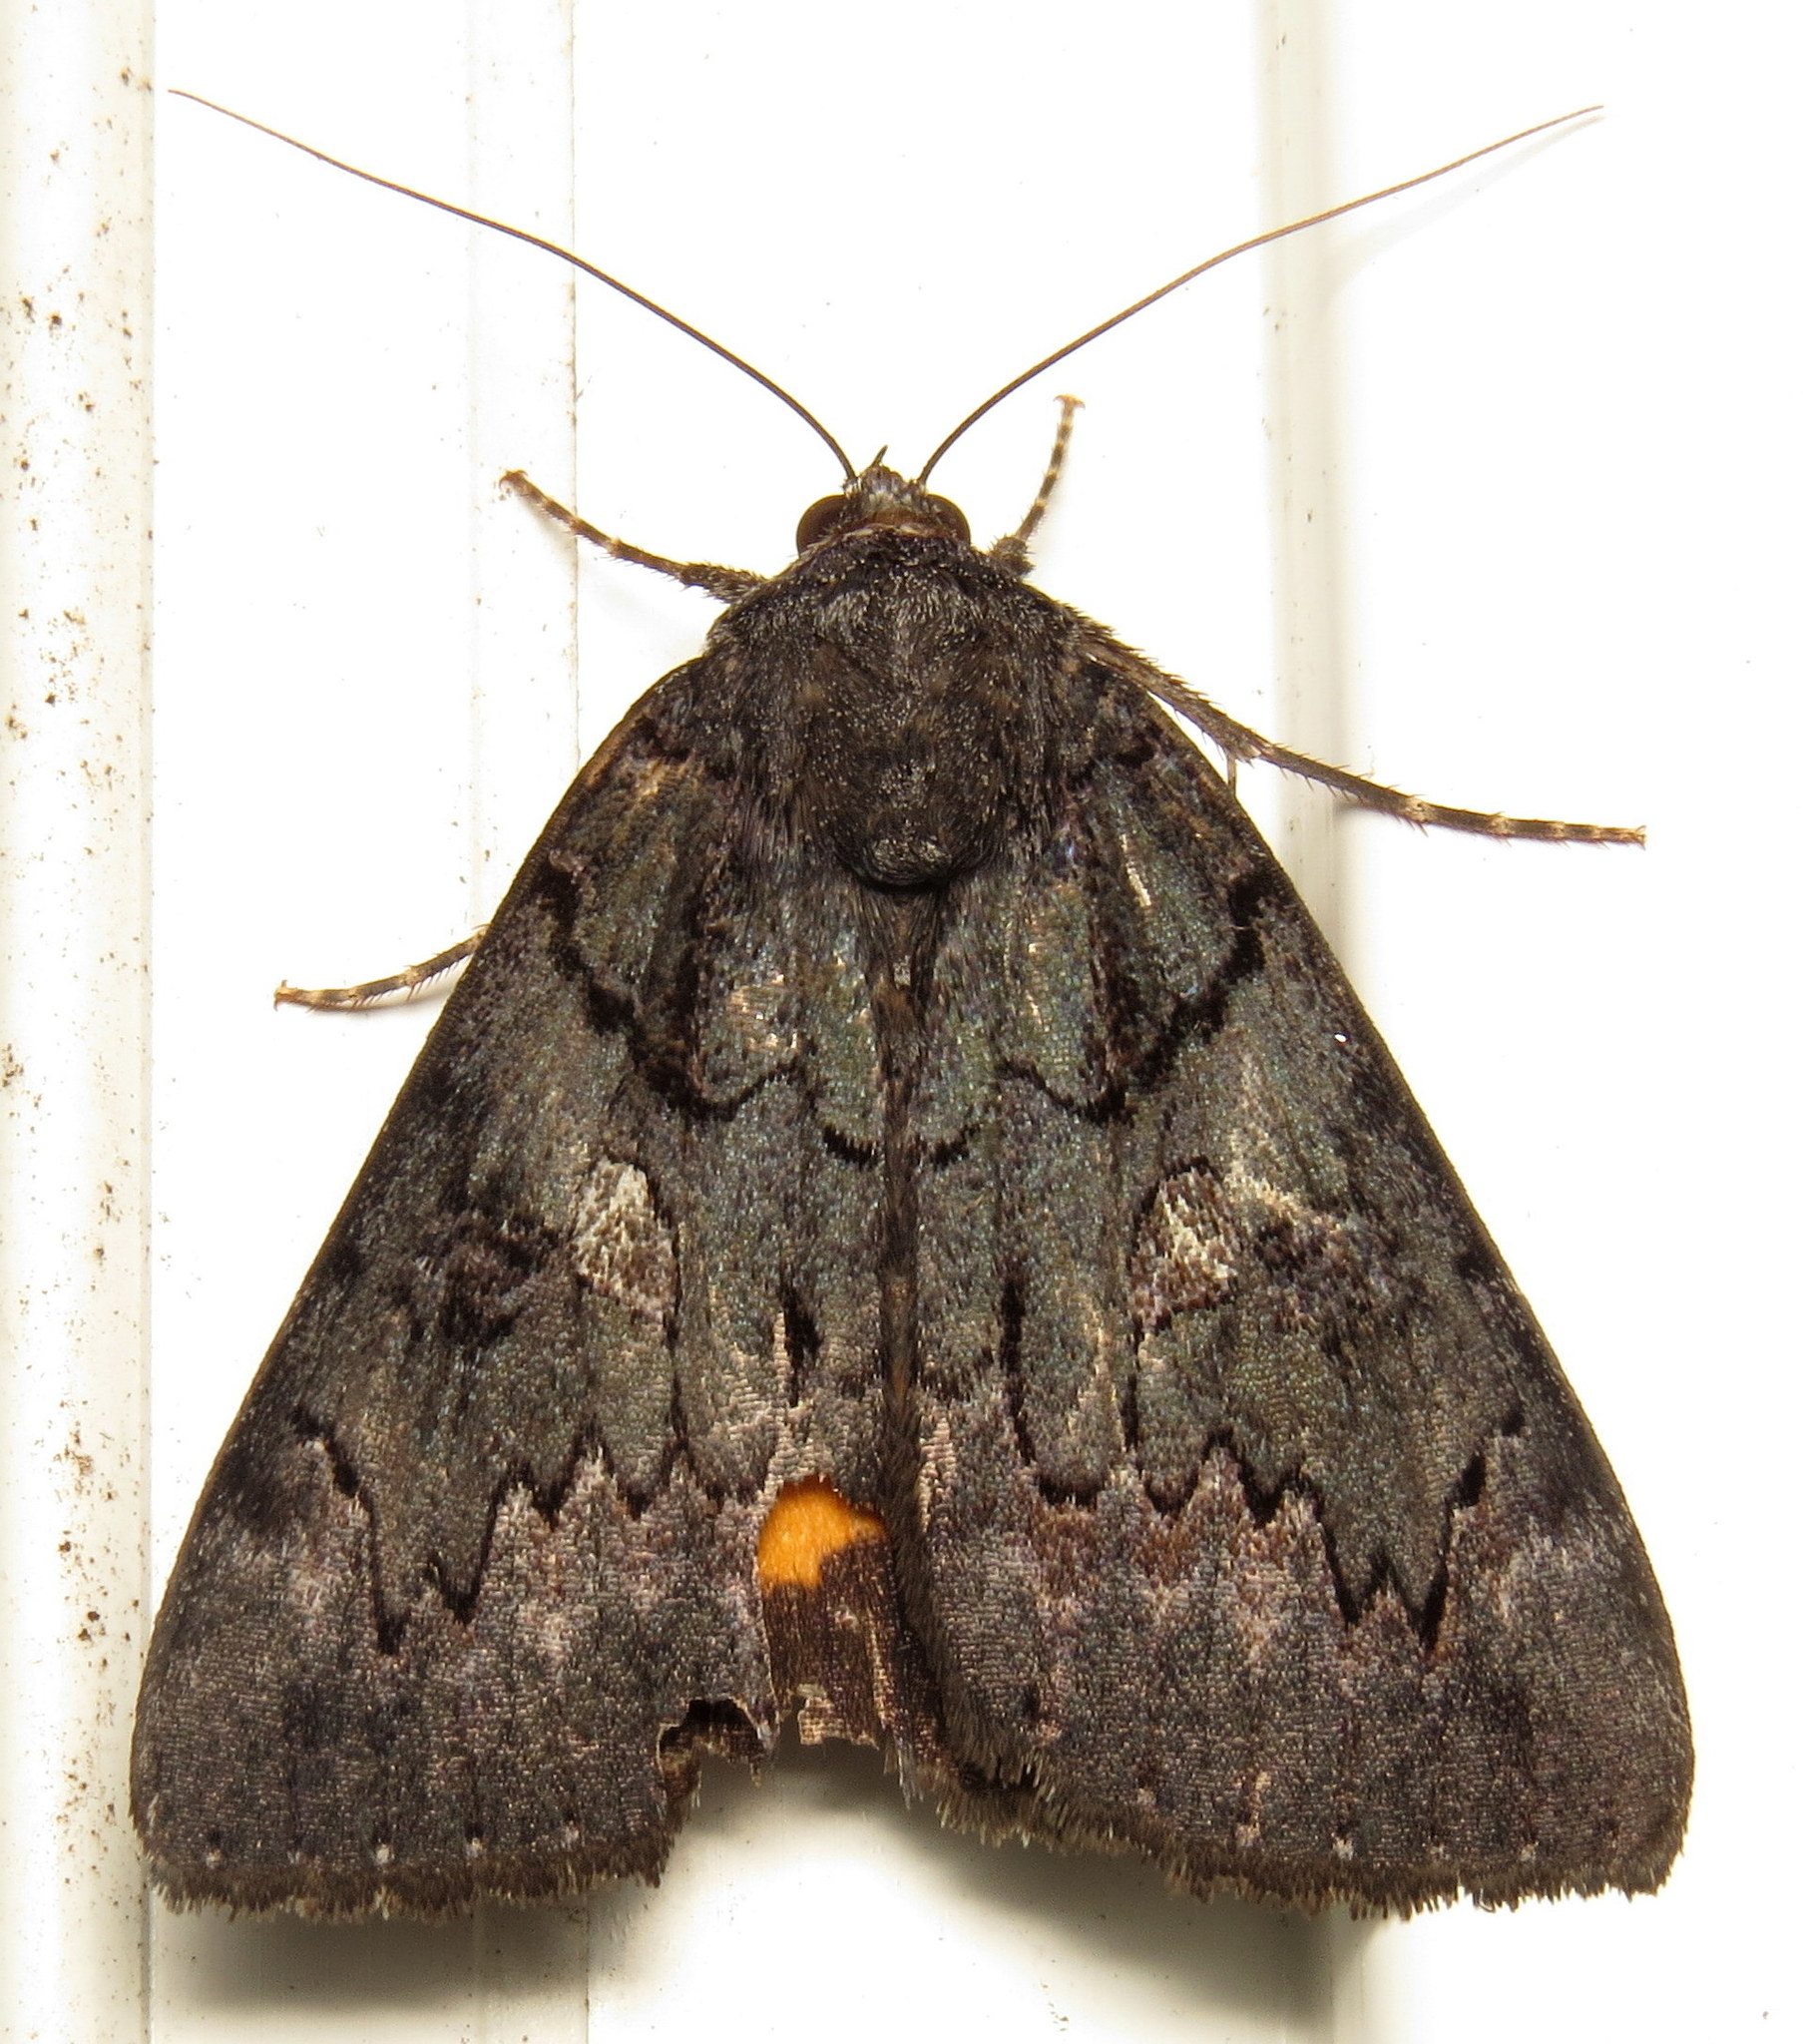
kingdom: Animalia
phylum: Arthropoda
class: Insecta
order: Lepidoptera
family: Erebidae
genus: Catocala
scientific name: Catocala antinympha
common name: Sweetfern underwing
